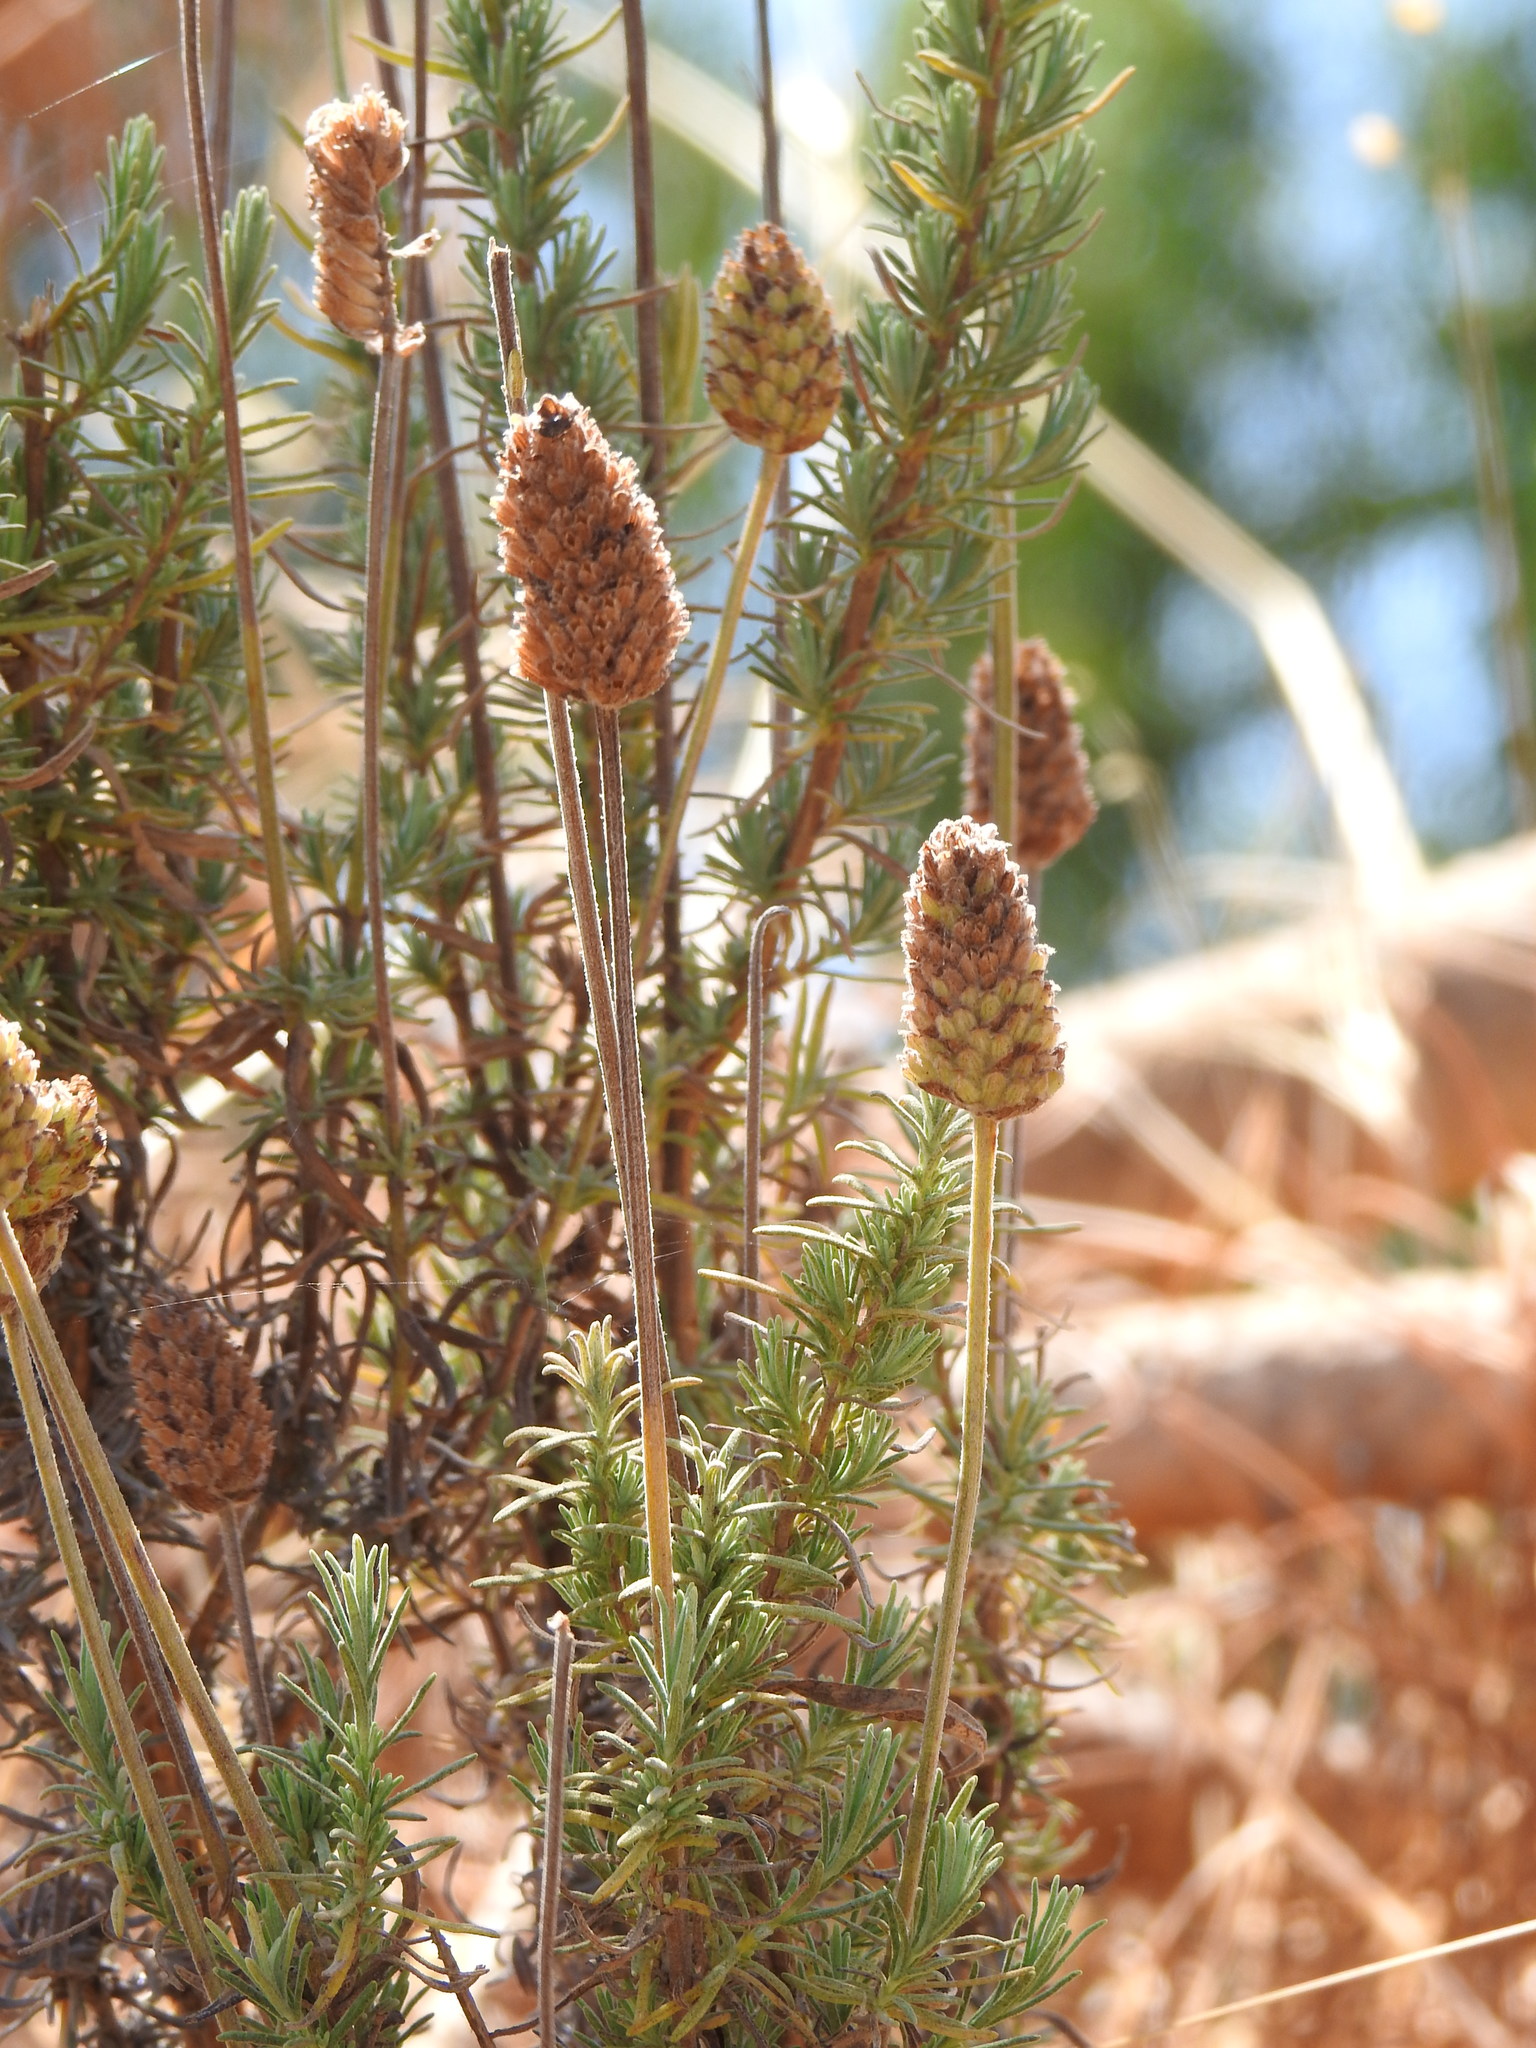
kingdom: Plantae
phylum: Tracheophyta
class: Magnoliopsida
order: Lamiales
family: Lamiaceae
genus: Lavandula
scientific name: Lavandula pedunculata
